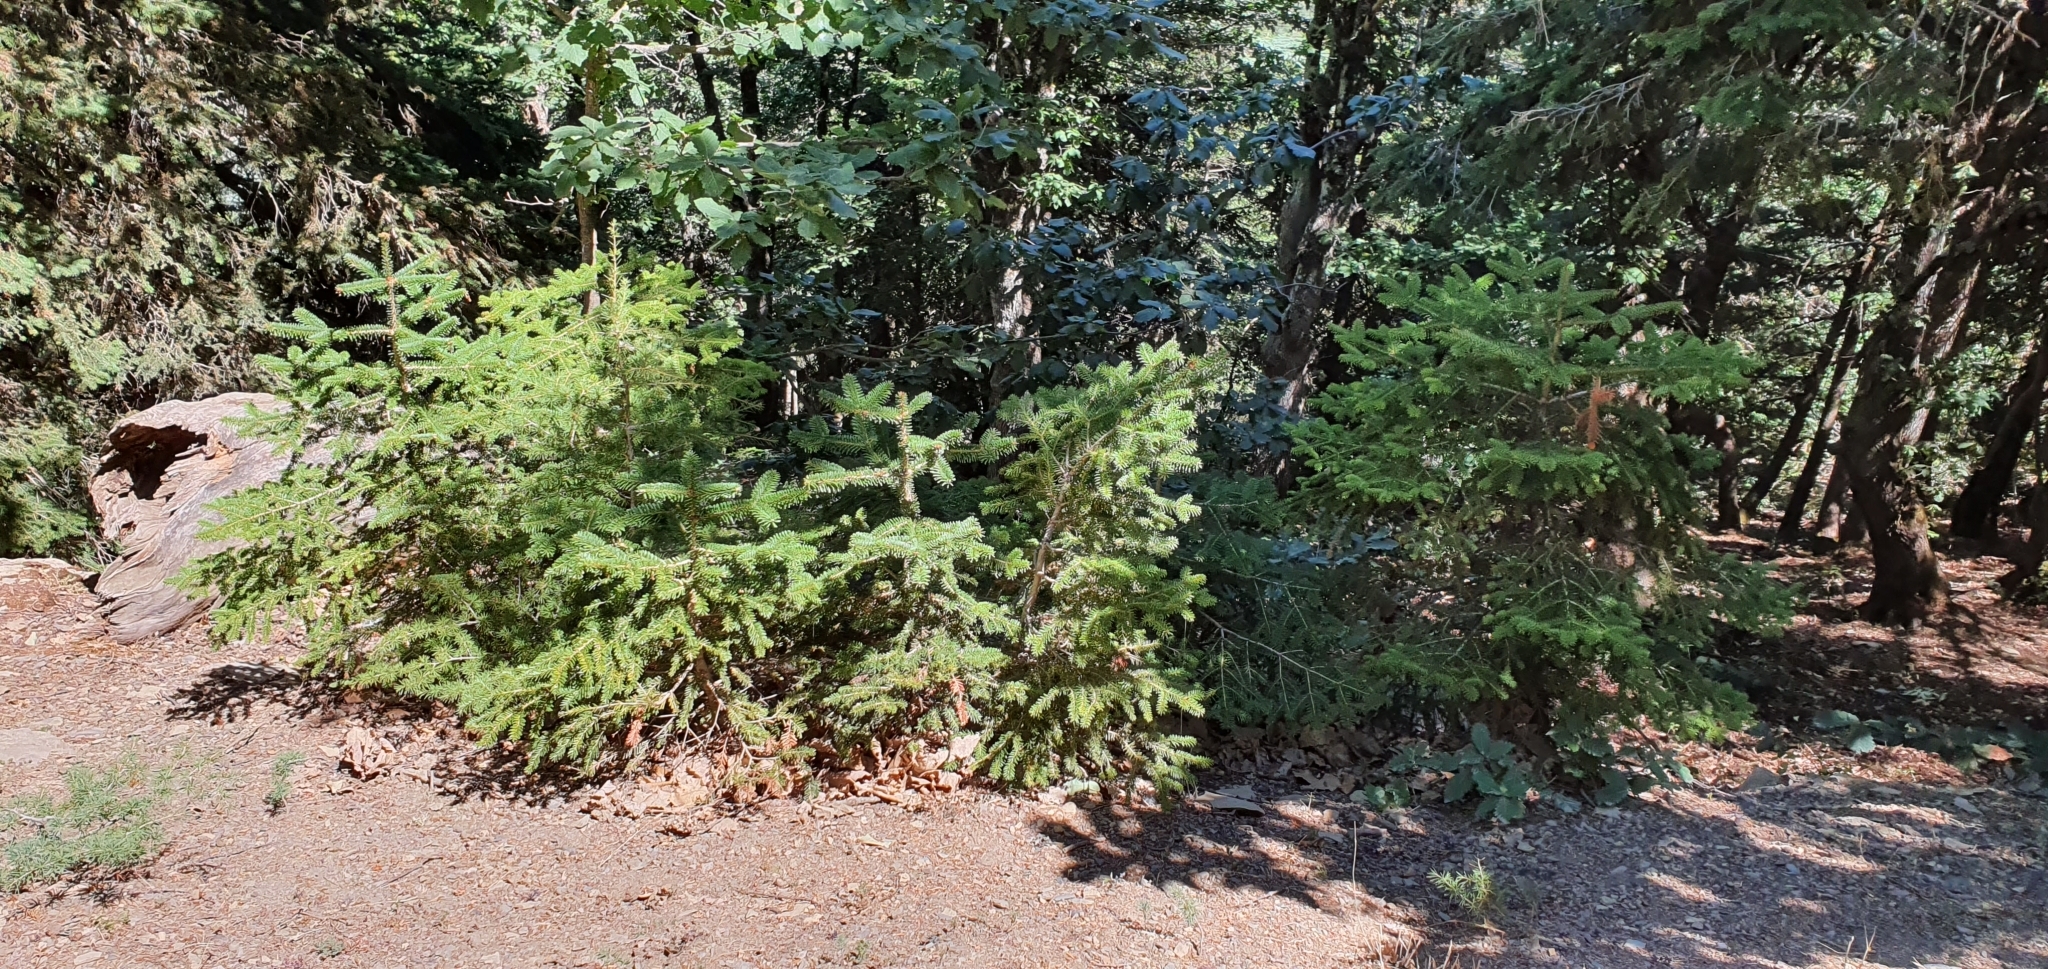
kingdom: Plantae
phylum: Tracheophyta
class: Pinopsida
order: Pinales
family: Pinaceae
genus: Abies
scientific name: Abies numidica
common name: Algerian fir
